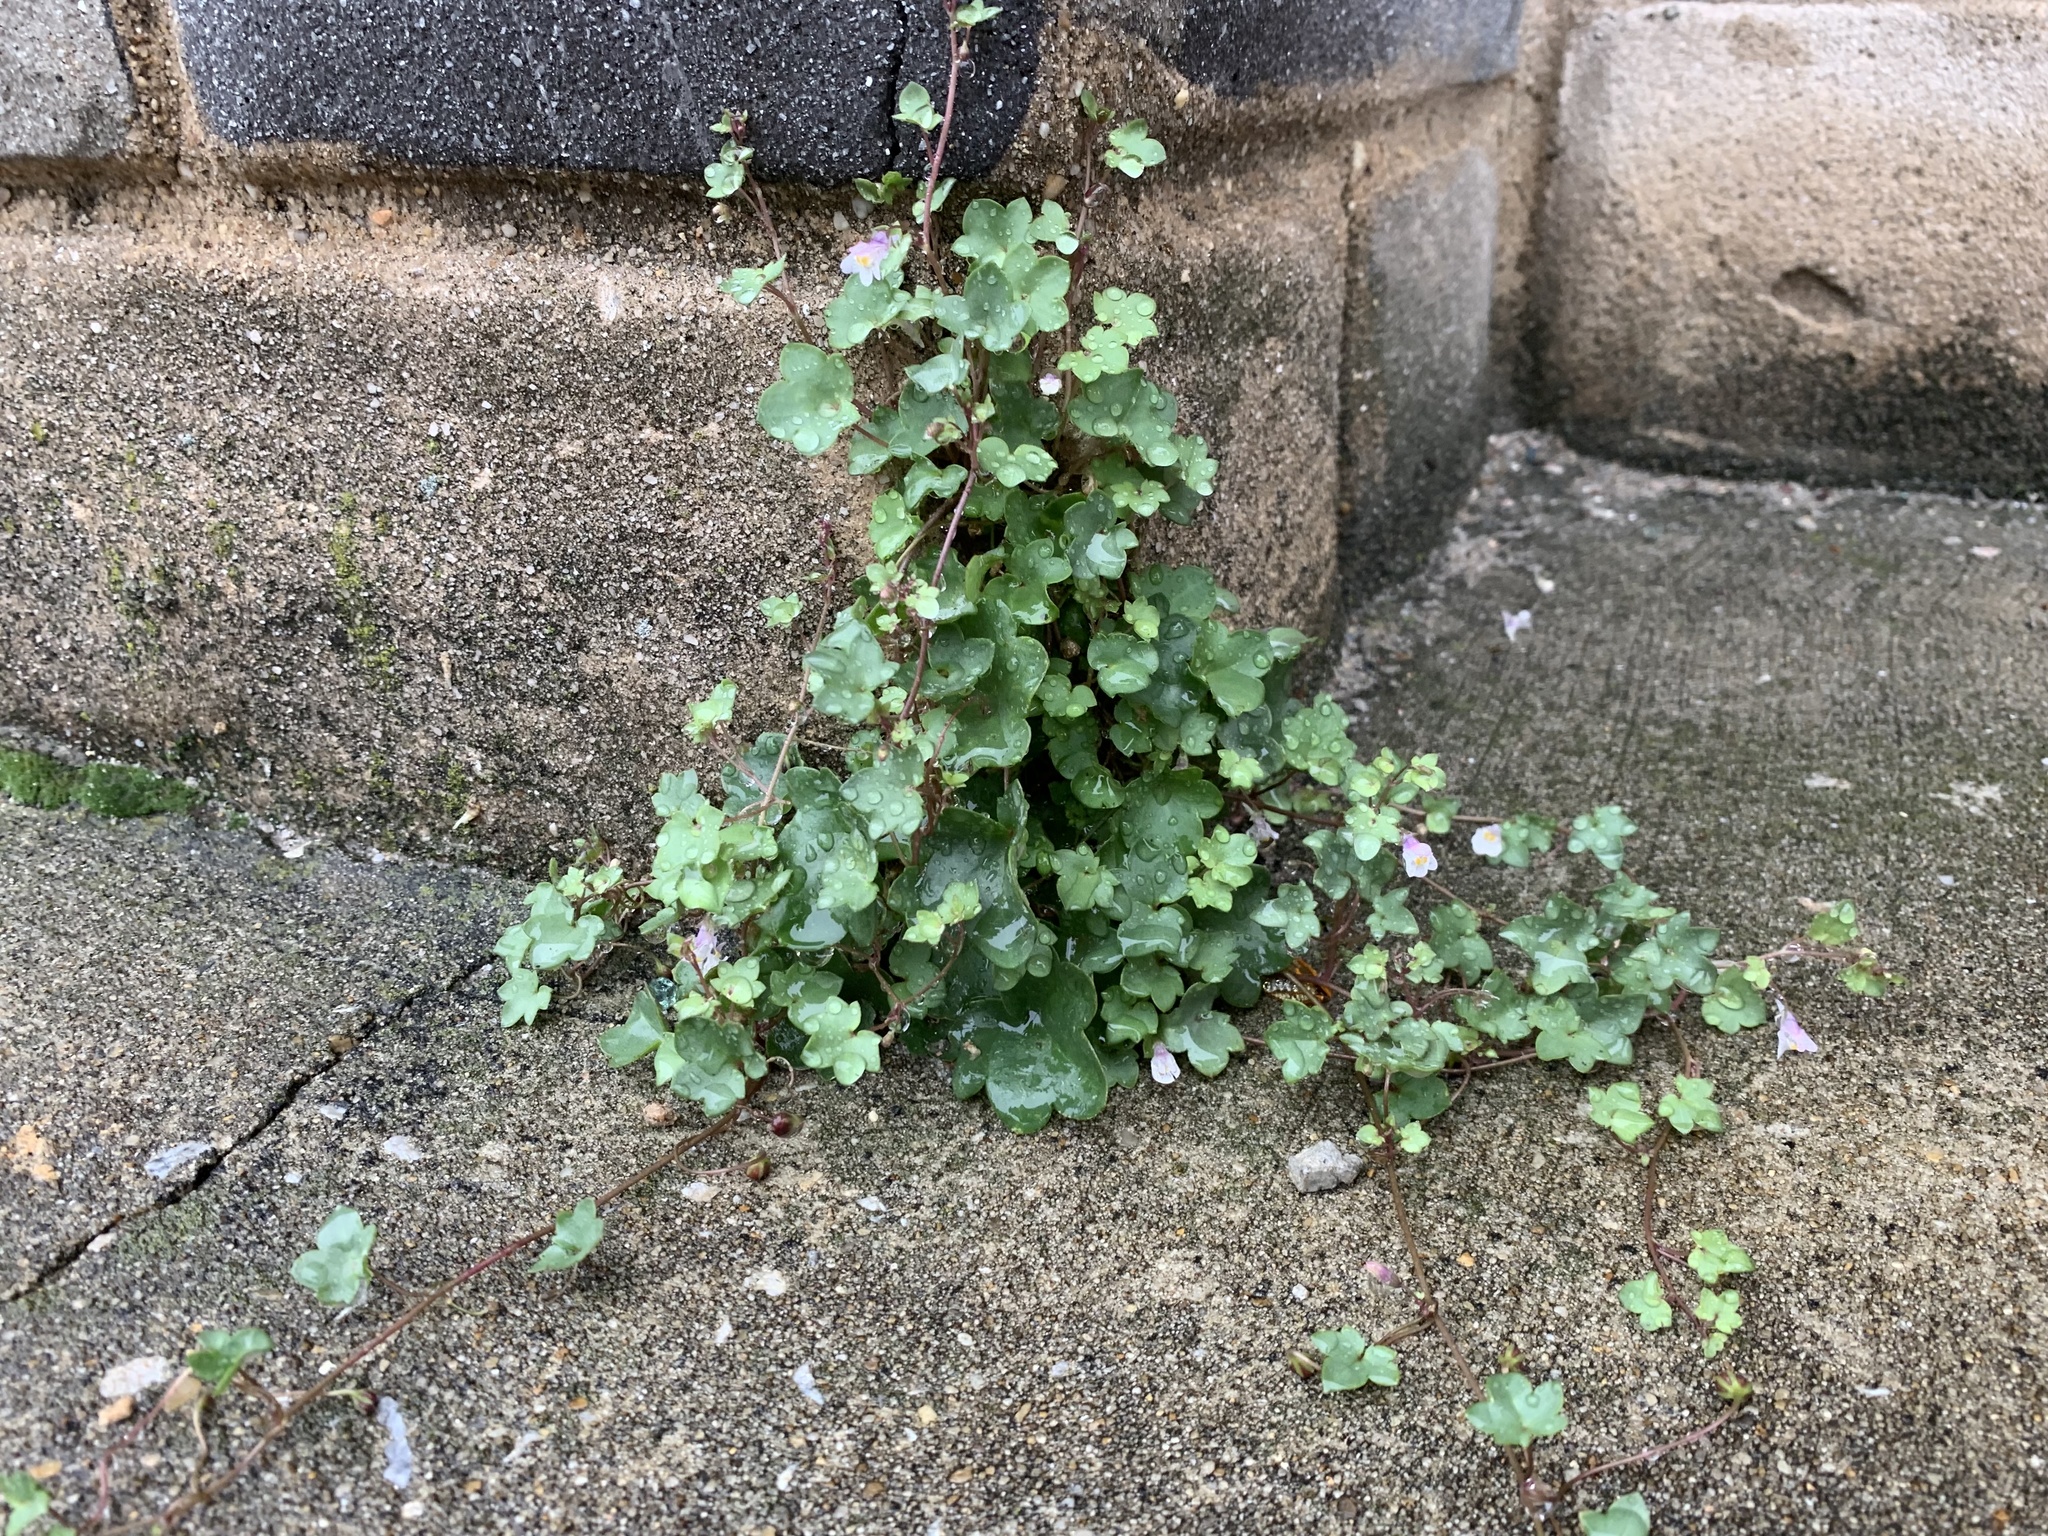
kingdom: Plantae
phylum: Tracheophyta
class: Magnoliopsida
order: Lamiales
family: Plantaginaceae
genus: Cymbalaria
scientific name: Cymbalaria muralis
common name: Ivy-leaved toadflax
